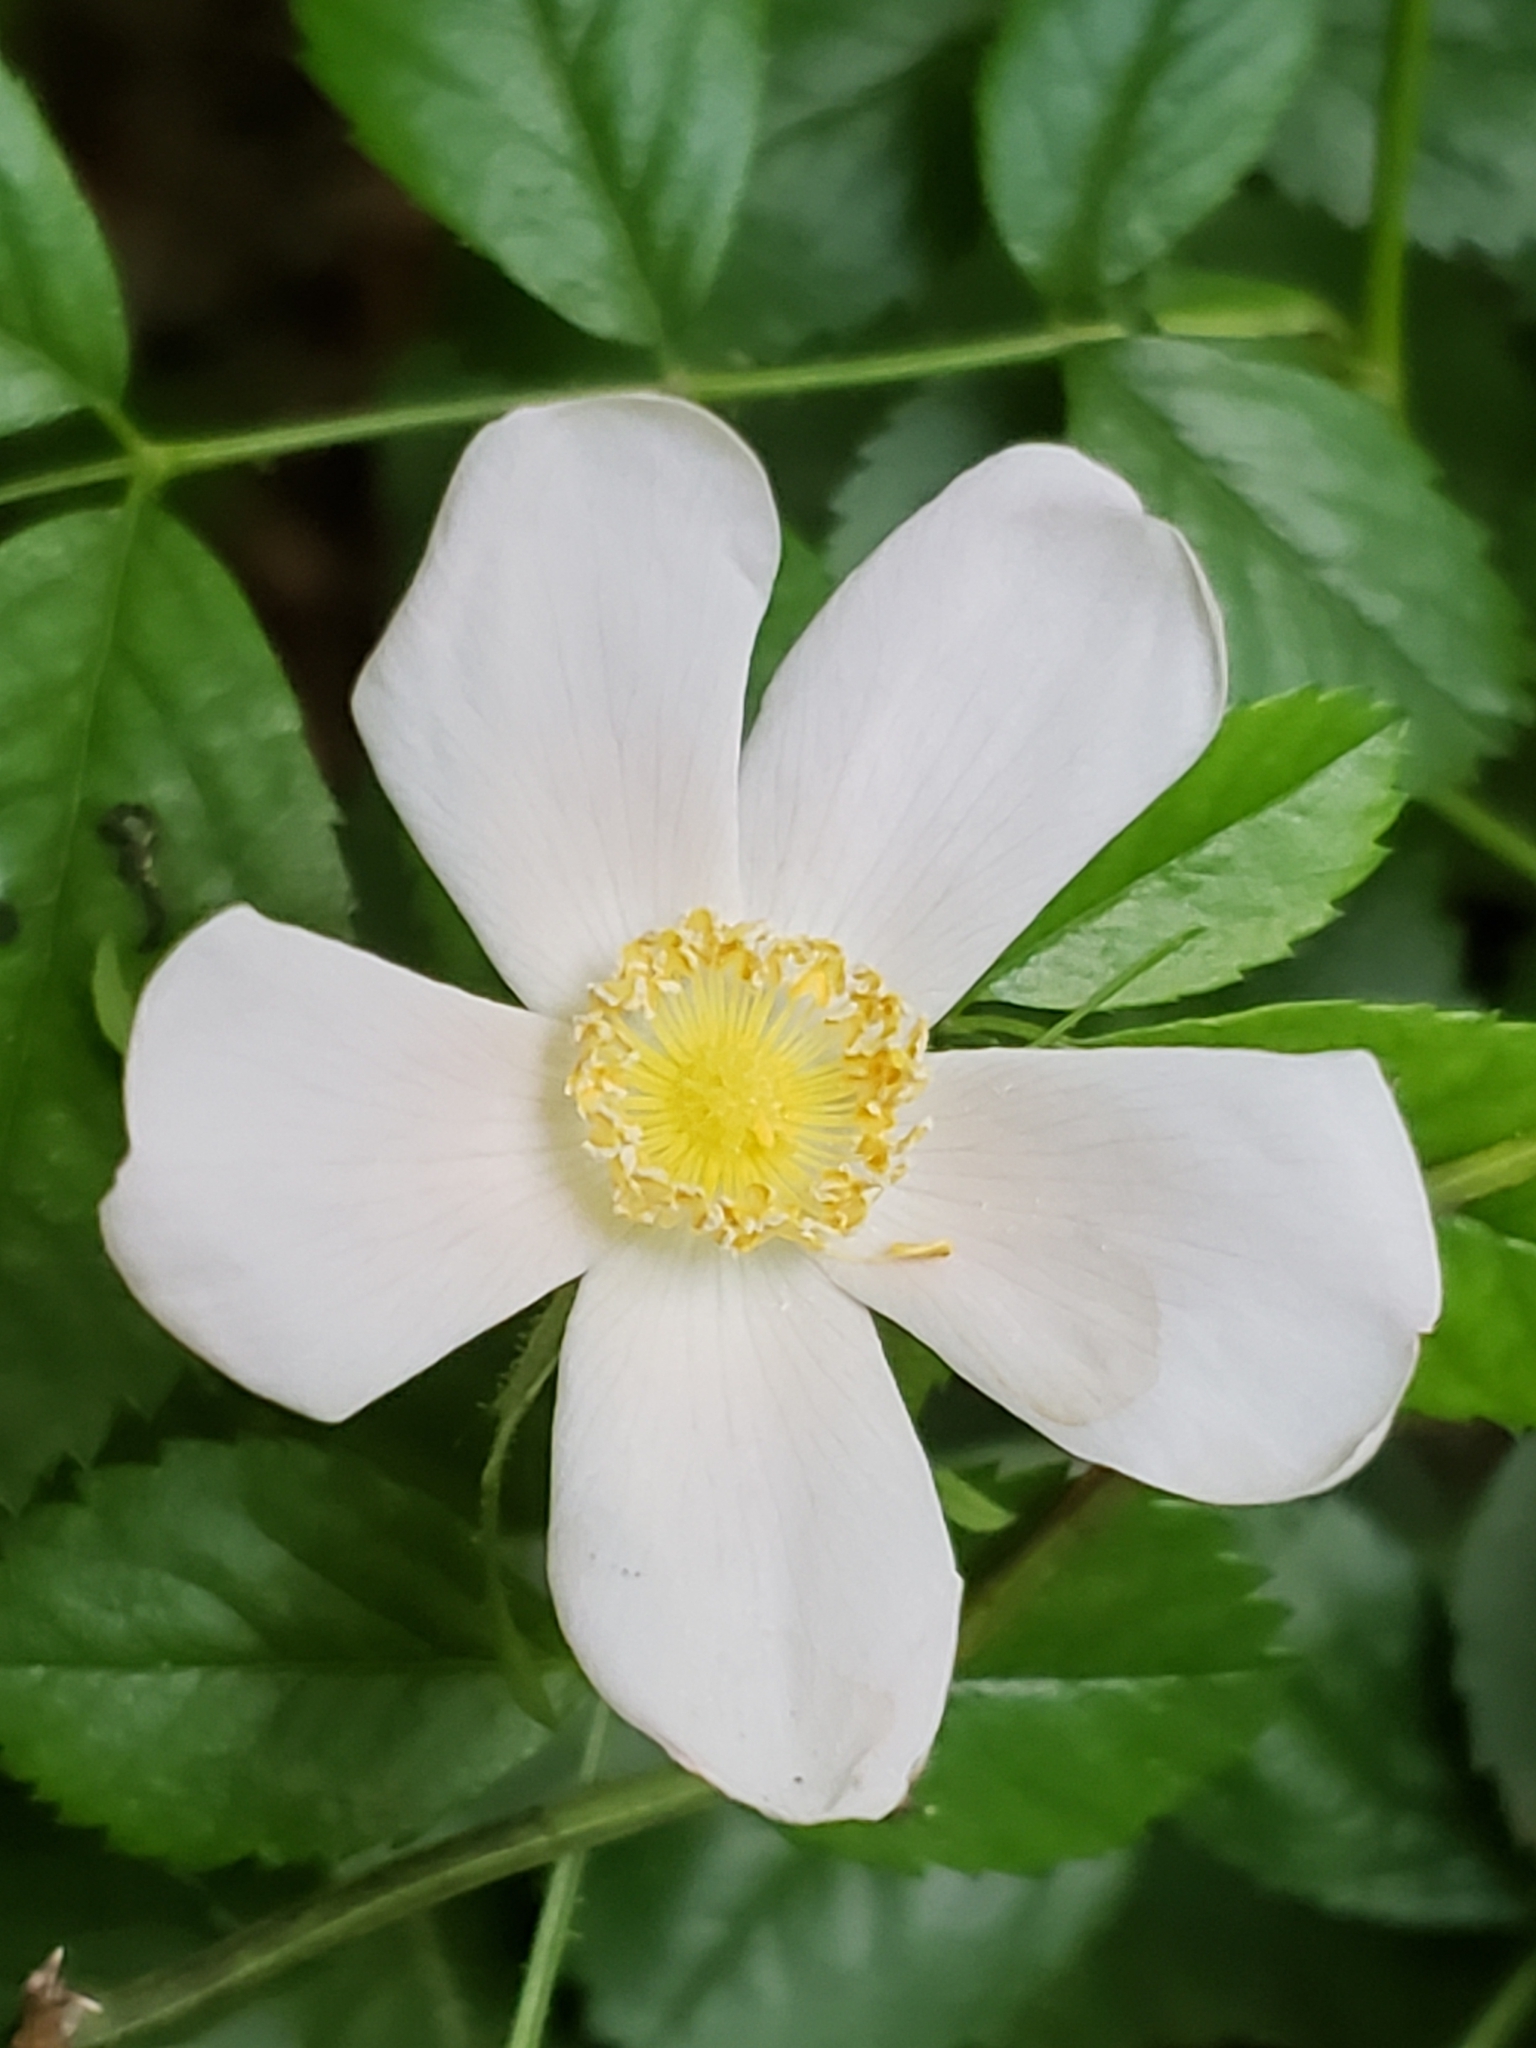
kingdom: Plantae
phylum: Tracheophyta
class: Magnoliopsida
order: Rosales
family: Rosaceae
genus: Rosa
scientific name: Rosa carolina
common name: Pasture rose
